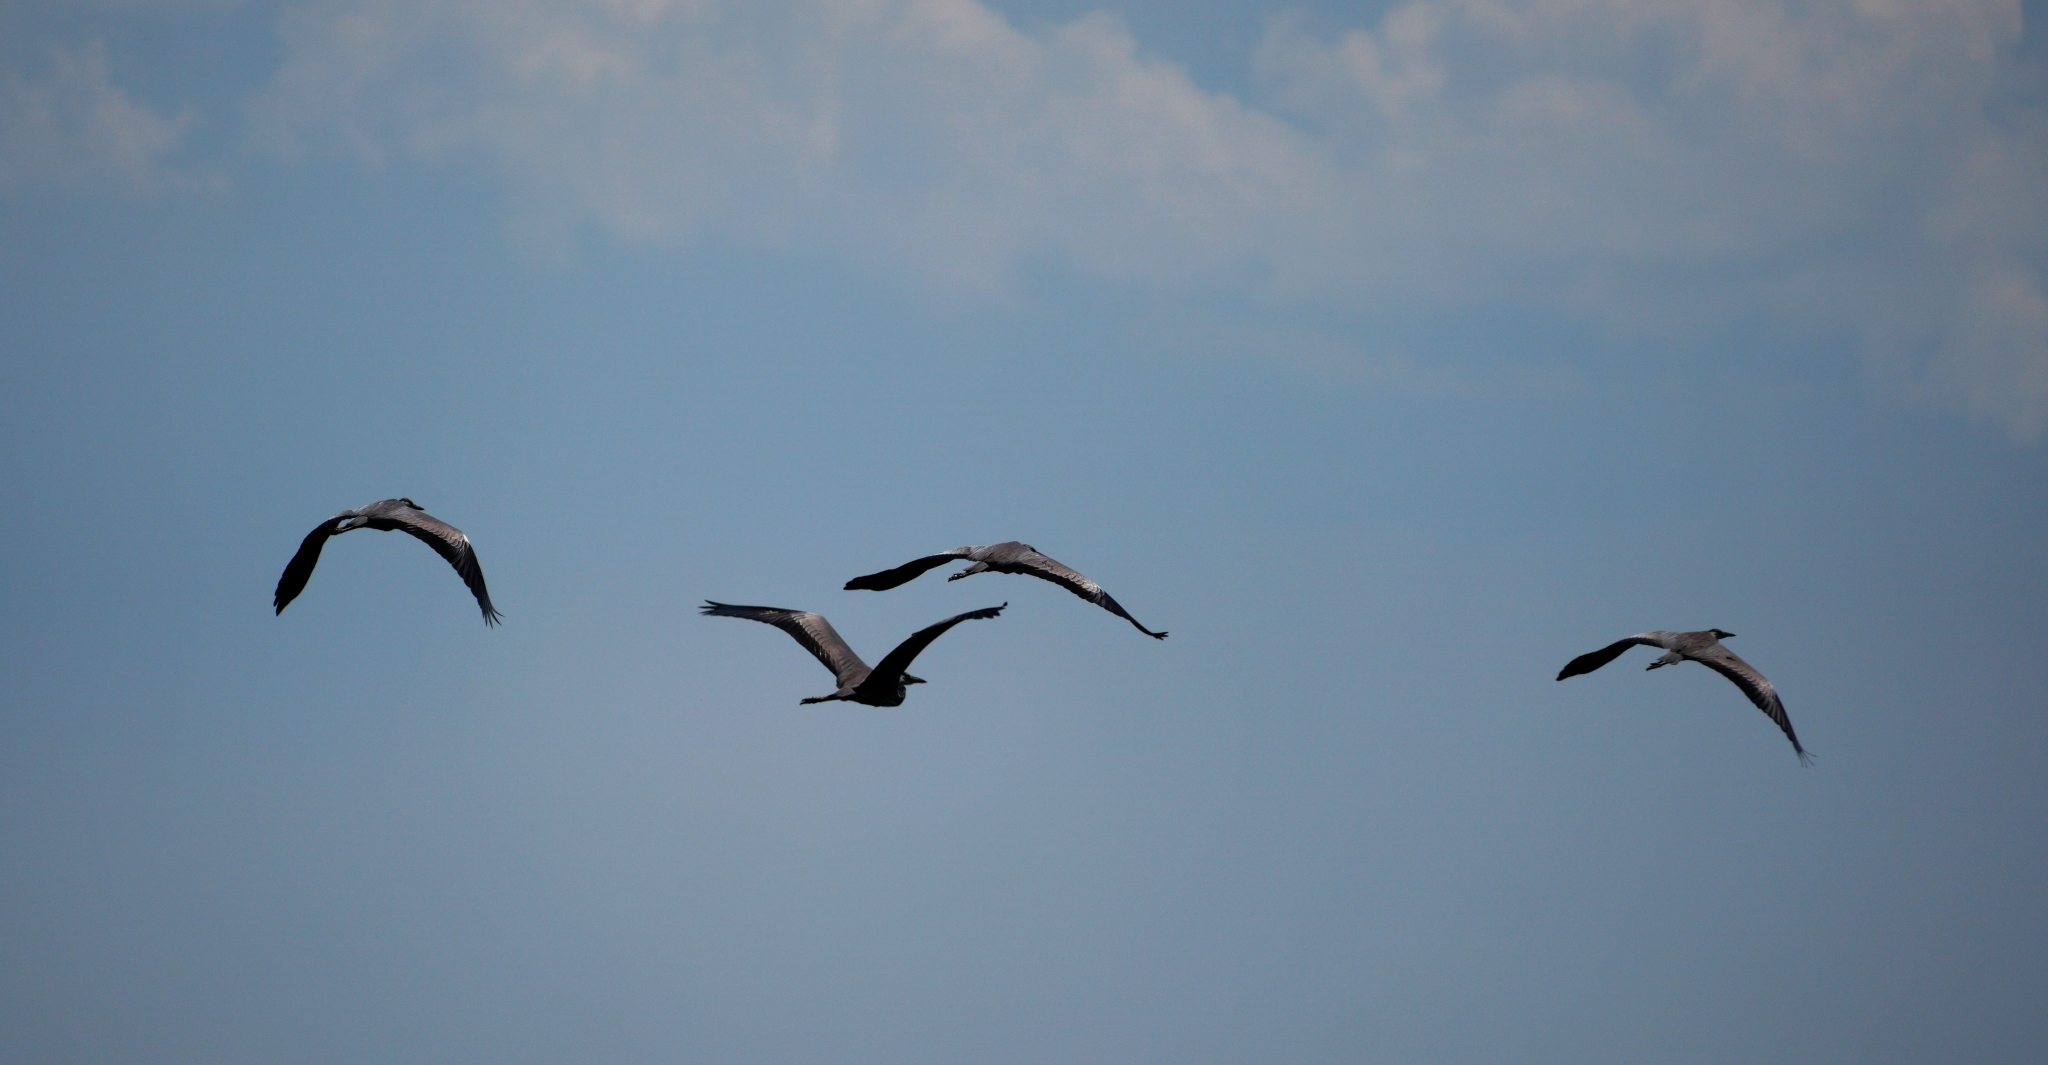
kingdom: Animalia
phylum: Chordata
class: Aves
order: Pelecaniformes
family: Ardeidae
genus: Ardea
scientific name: Ardea cinerea
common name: Grey heron
